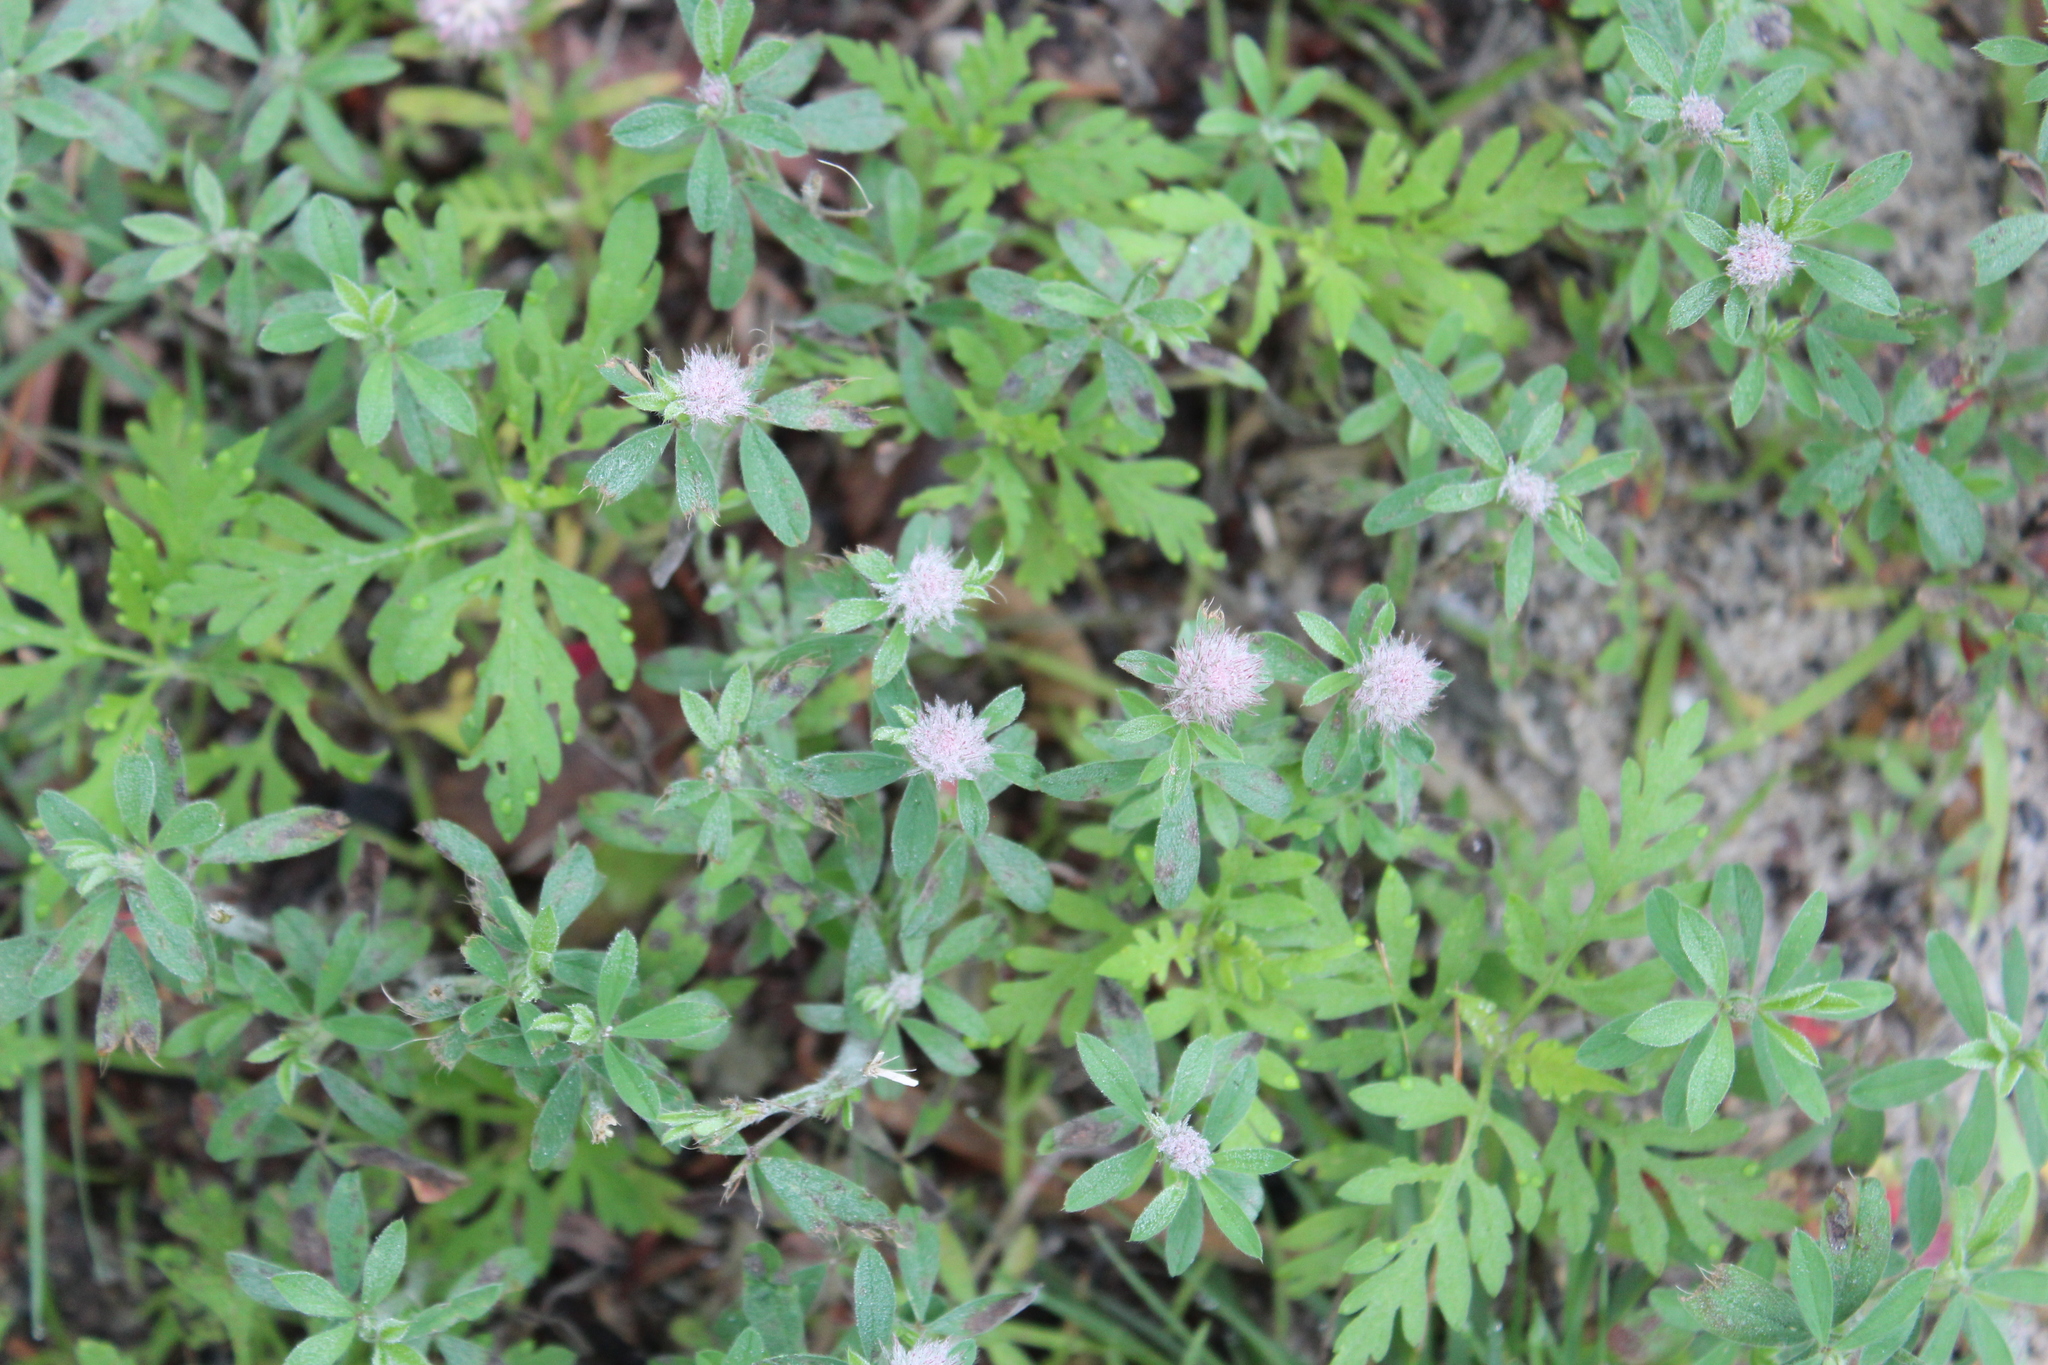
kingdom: Plantae
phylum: Tracheophyta
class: Magnoliopsida
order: Fabales
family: Fabaceae
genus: Trifolium
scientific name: Trifolium arvense
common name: Hare's-foot clover
